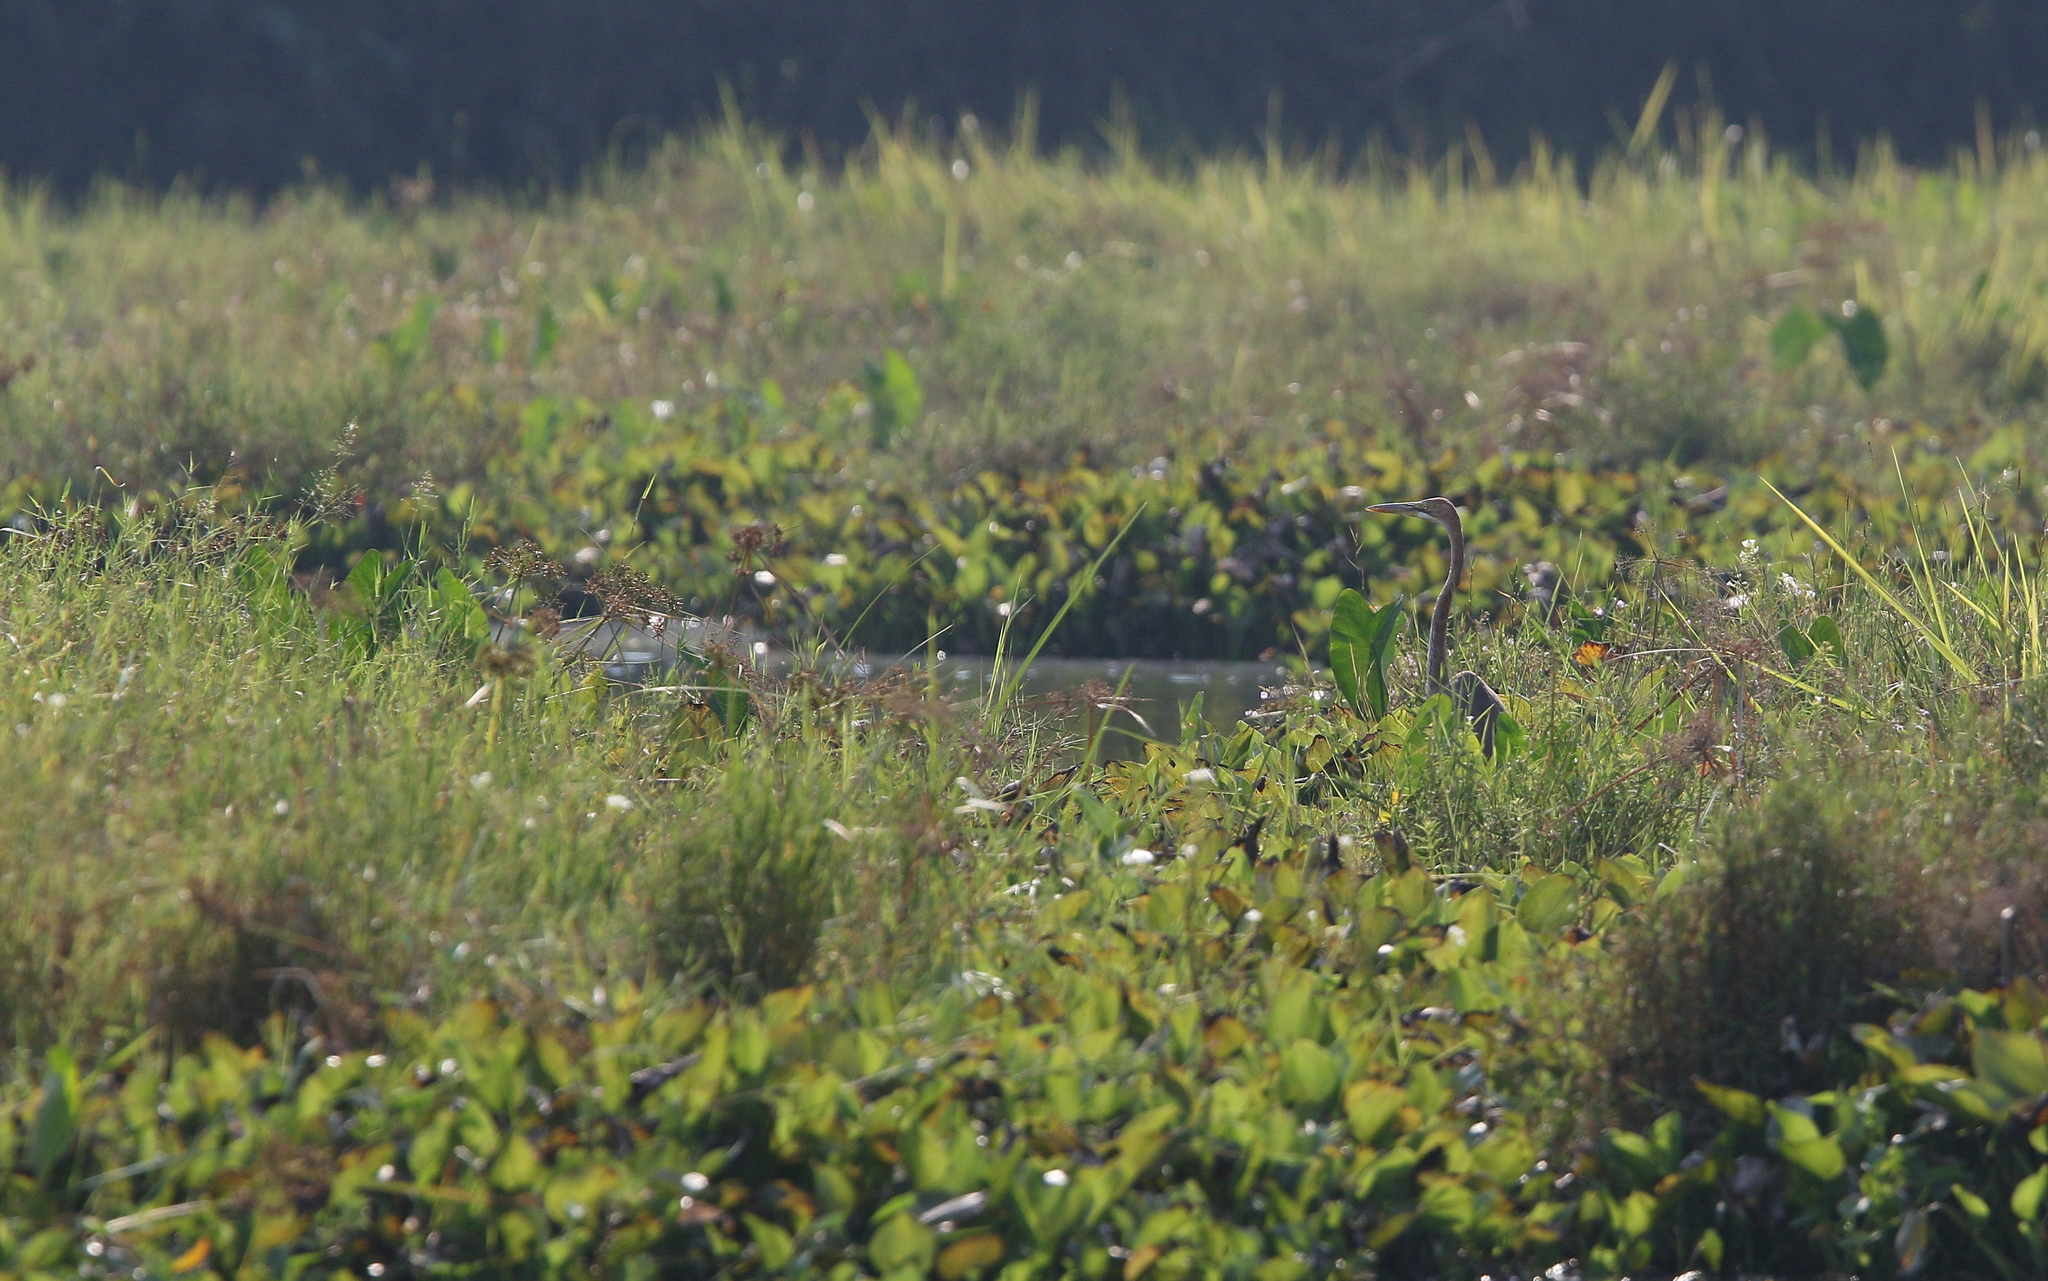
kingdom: Animalia
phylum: Chordata
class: Aves
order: Pelecaniformes
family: Ardeidae
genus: Ardea
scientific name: Ardea purpurea
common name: Purple heron
